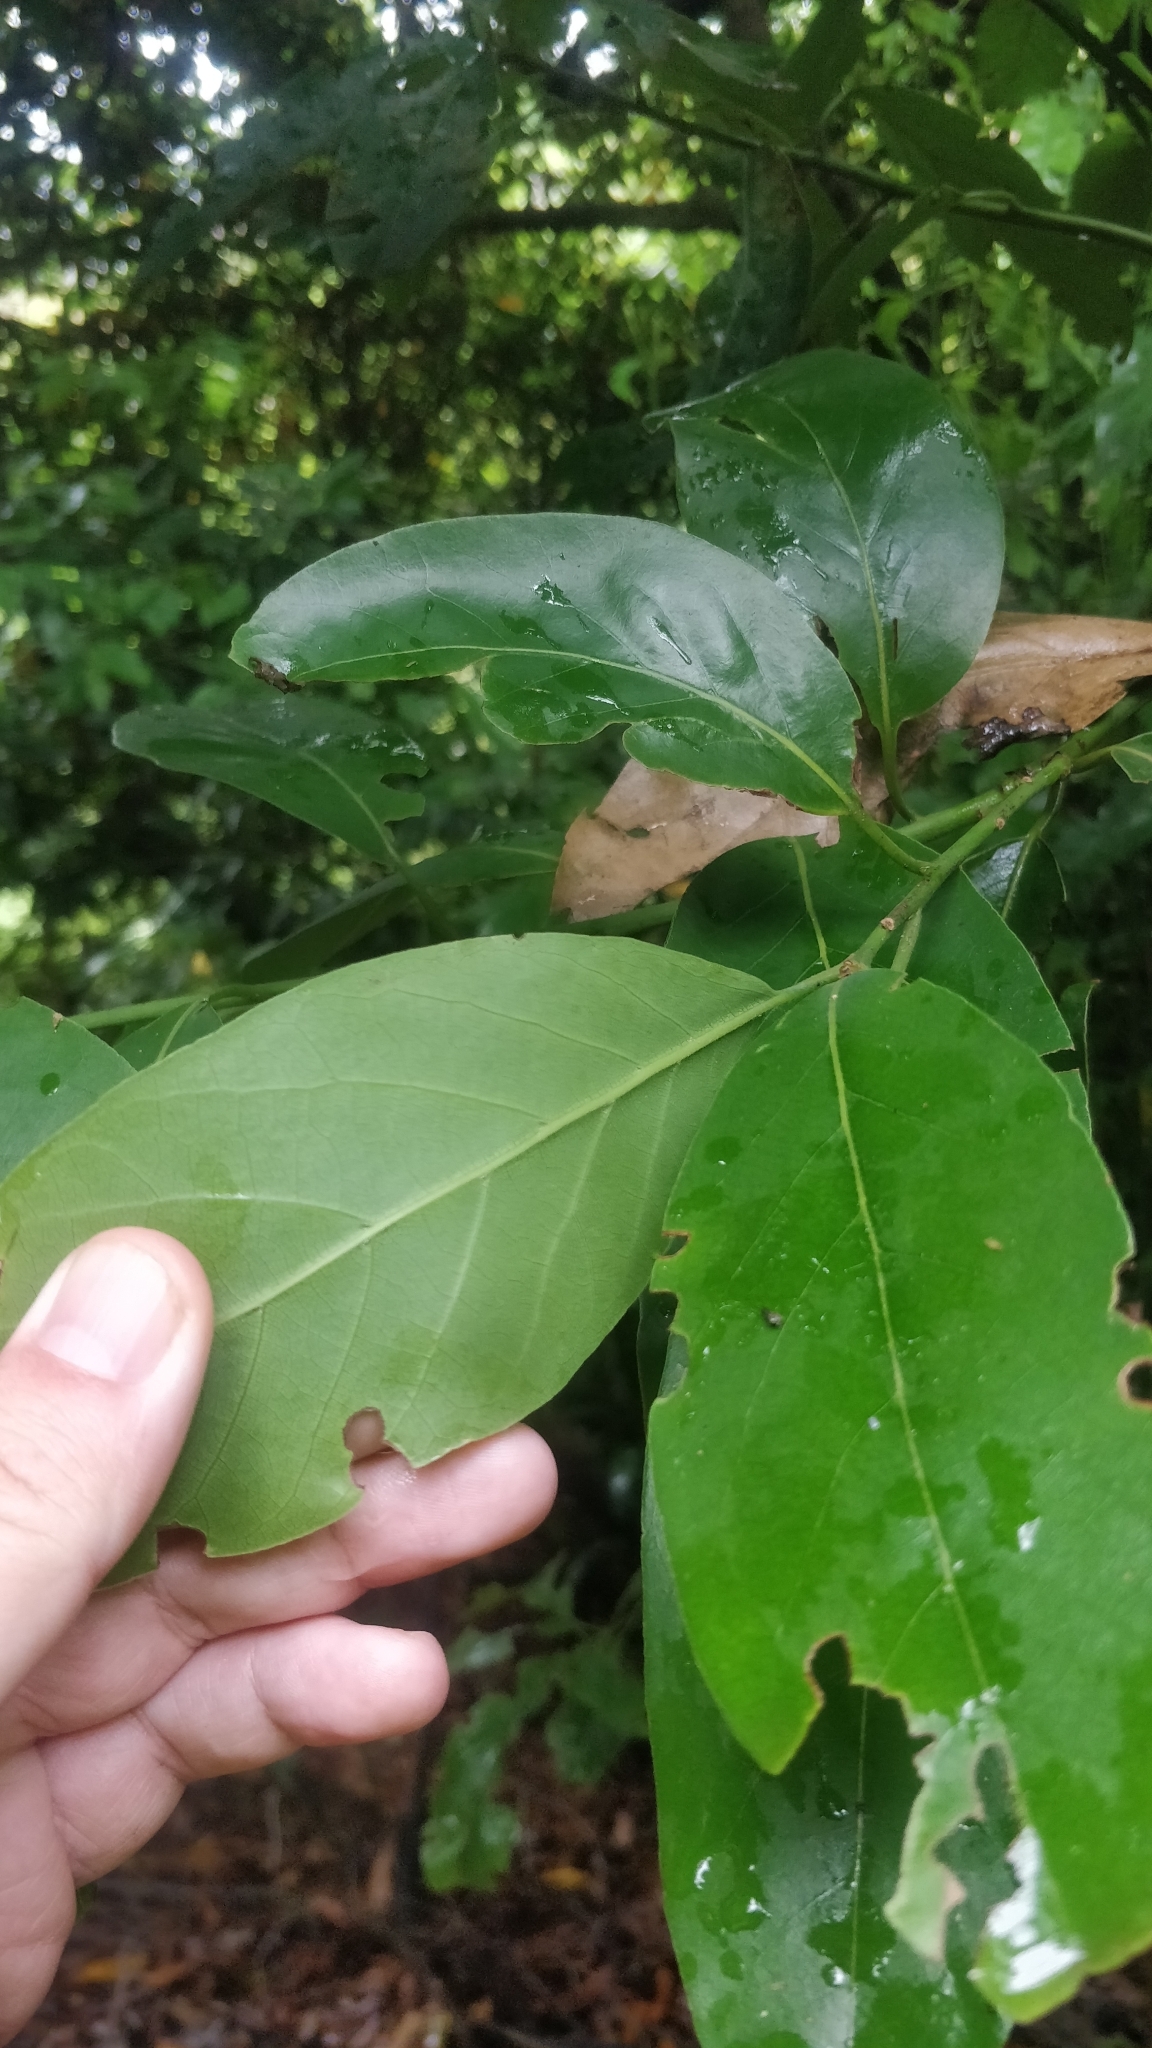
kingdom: Plantae
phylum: Tracheophyta
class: Magnoliopsida
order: Laurales
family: Lauraceae
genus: Laurus
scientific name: Laurus novocanariensis
